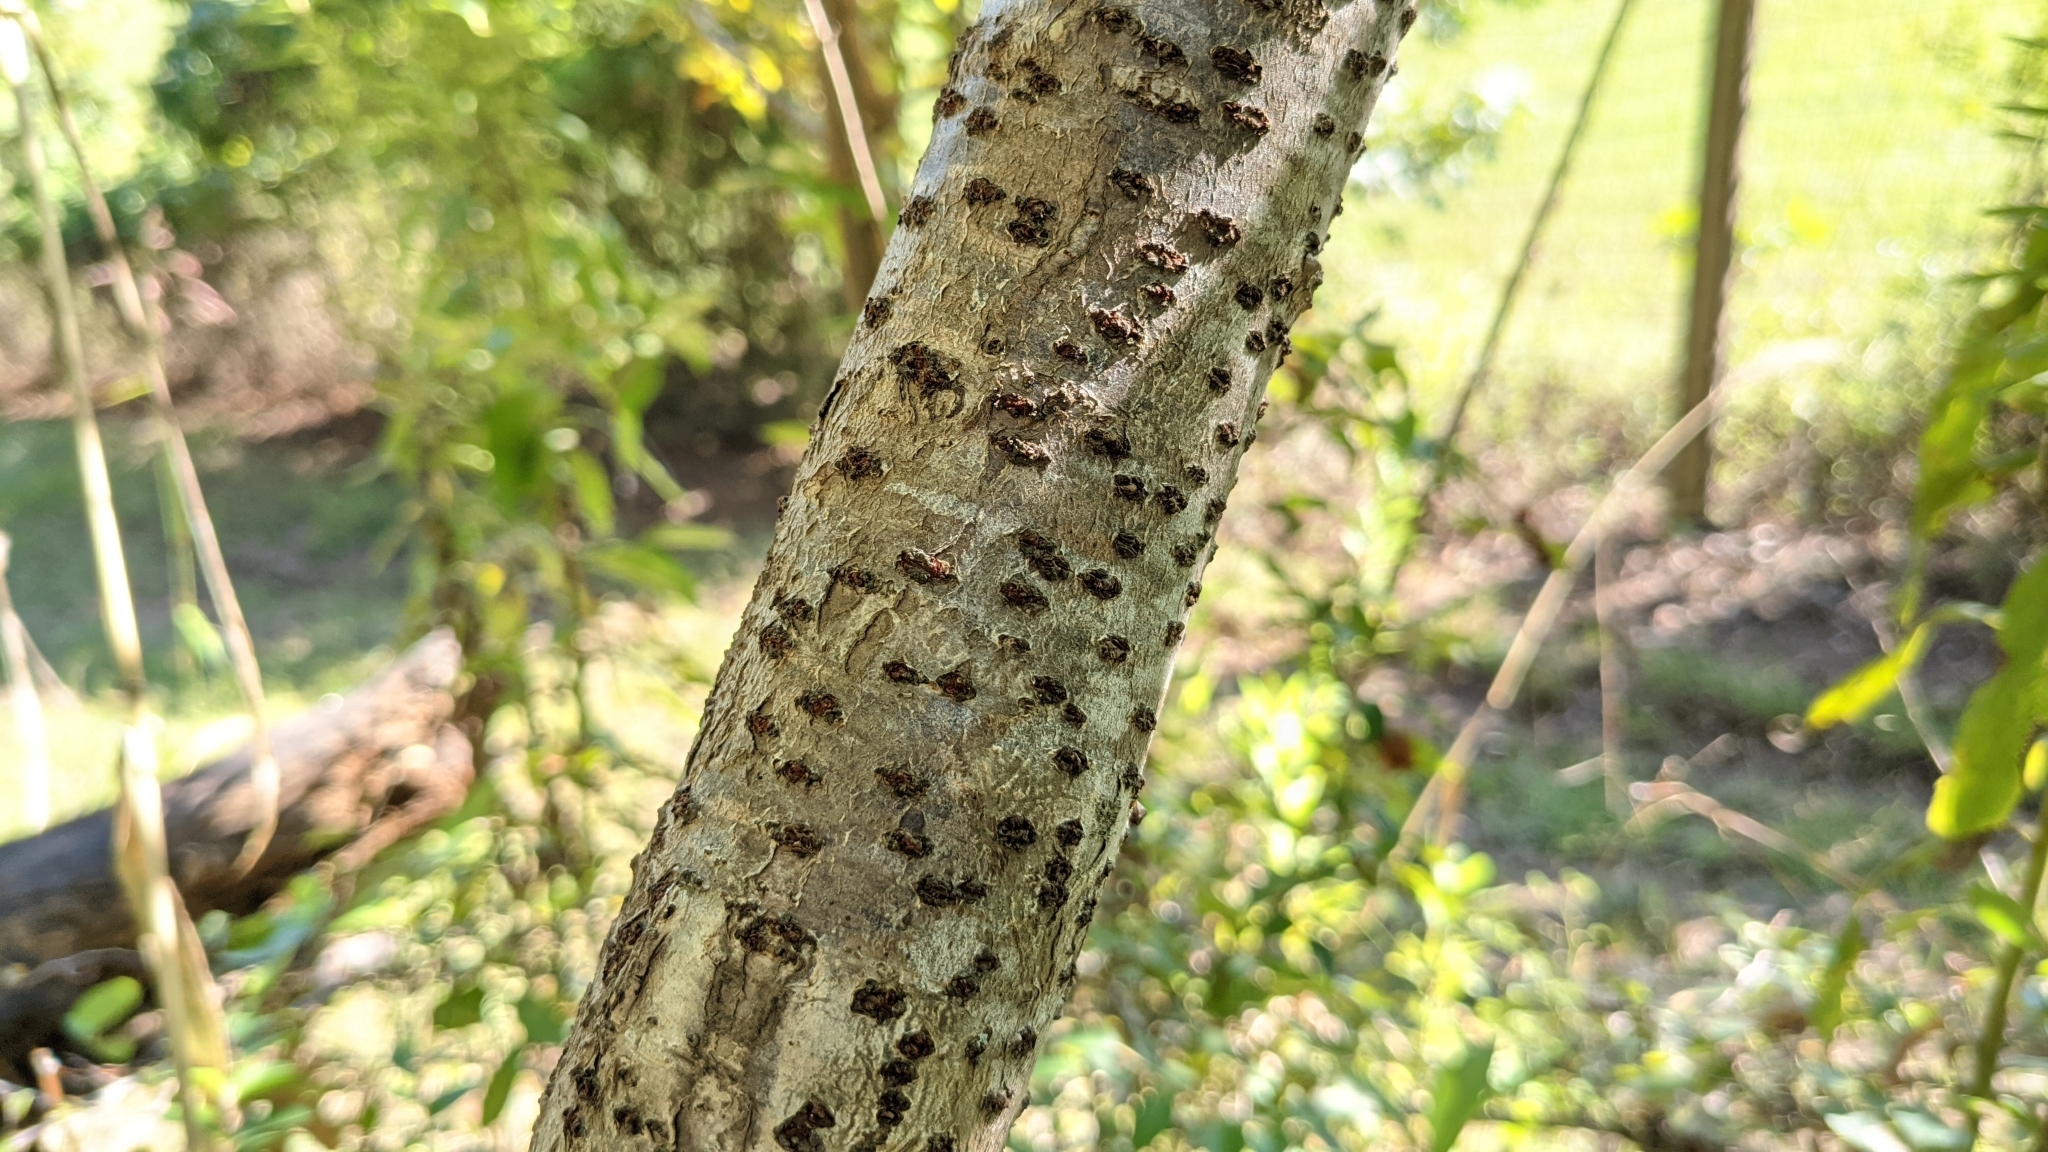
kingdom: Plantae
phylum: Tracheophyta
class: Magnoliopsida
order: Sapindales
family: Anacardiaceae
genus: Rhus
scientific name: Rhus copallina
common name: Shining sumac
